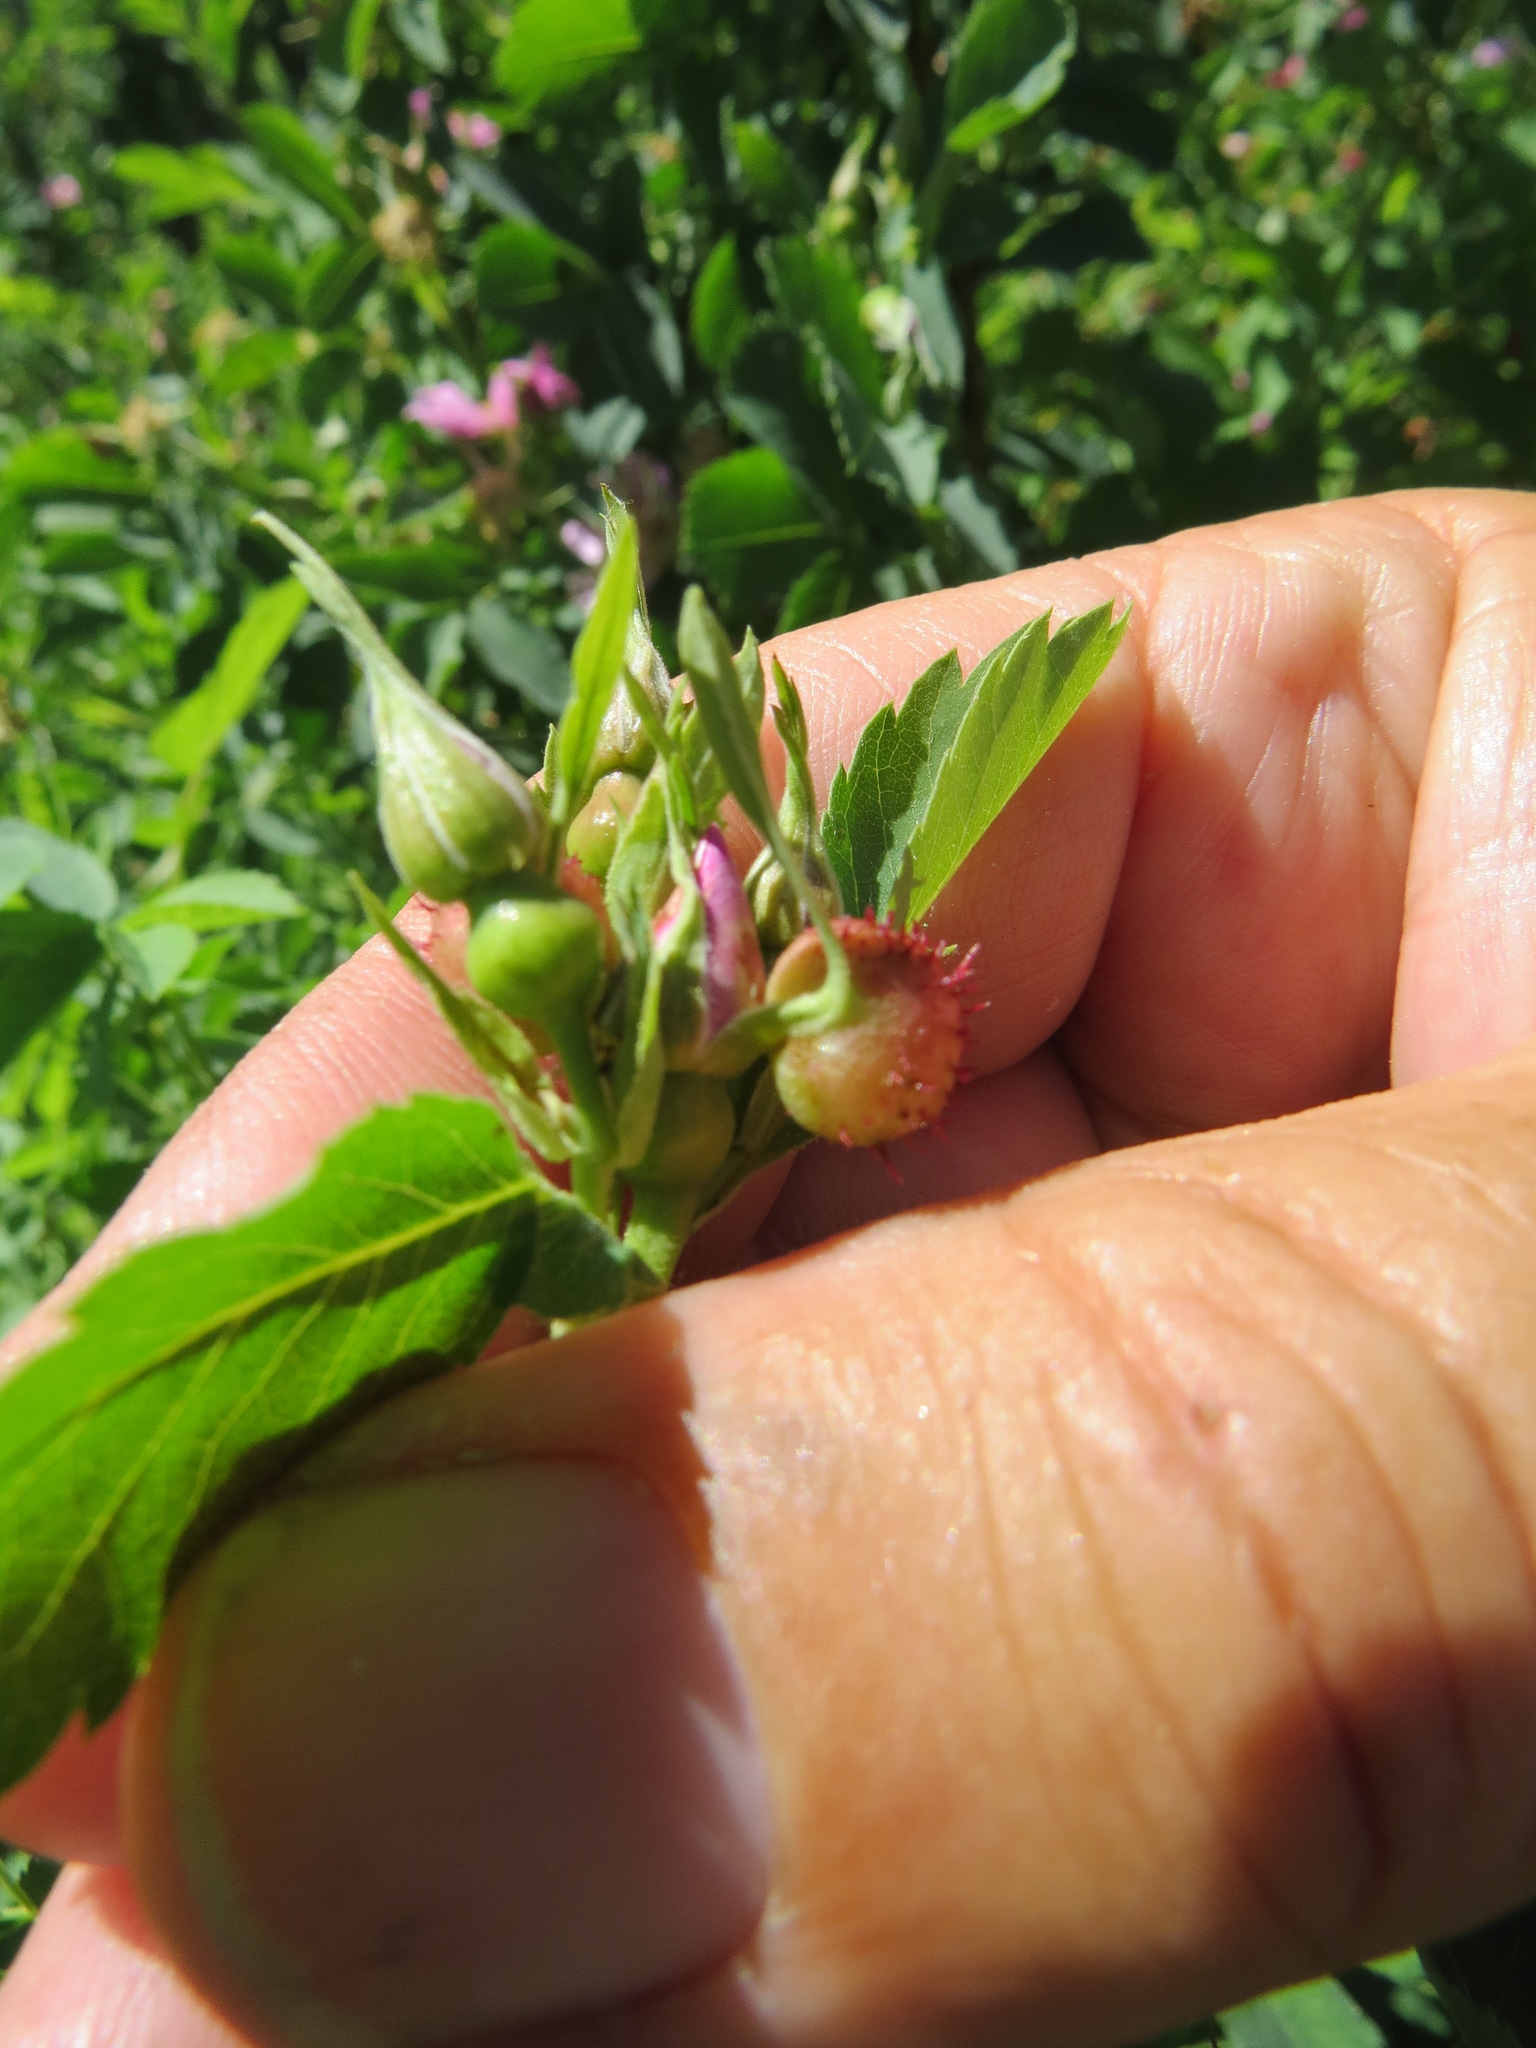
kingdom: Plantae
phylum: Tracheophyta
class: Magnoliopsida
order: Rosales
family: Rosaceae
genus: Rosa
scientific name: Rosa woodsii
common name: Woods's rose
